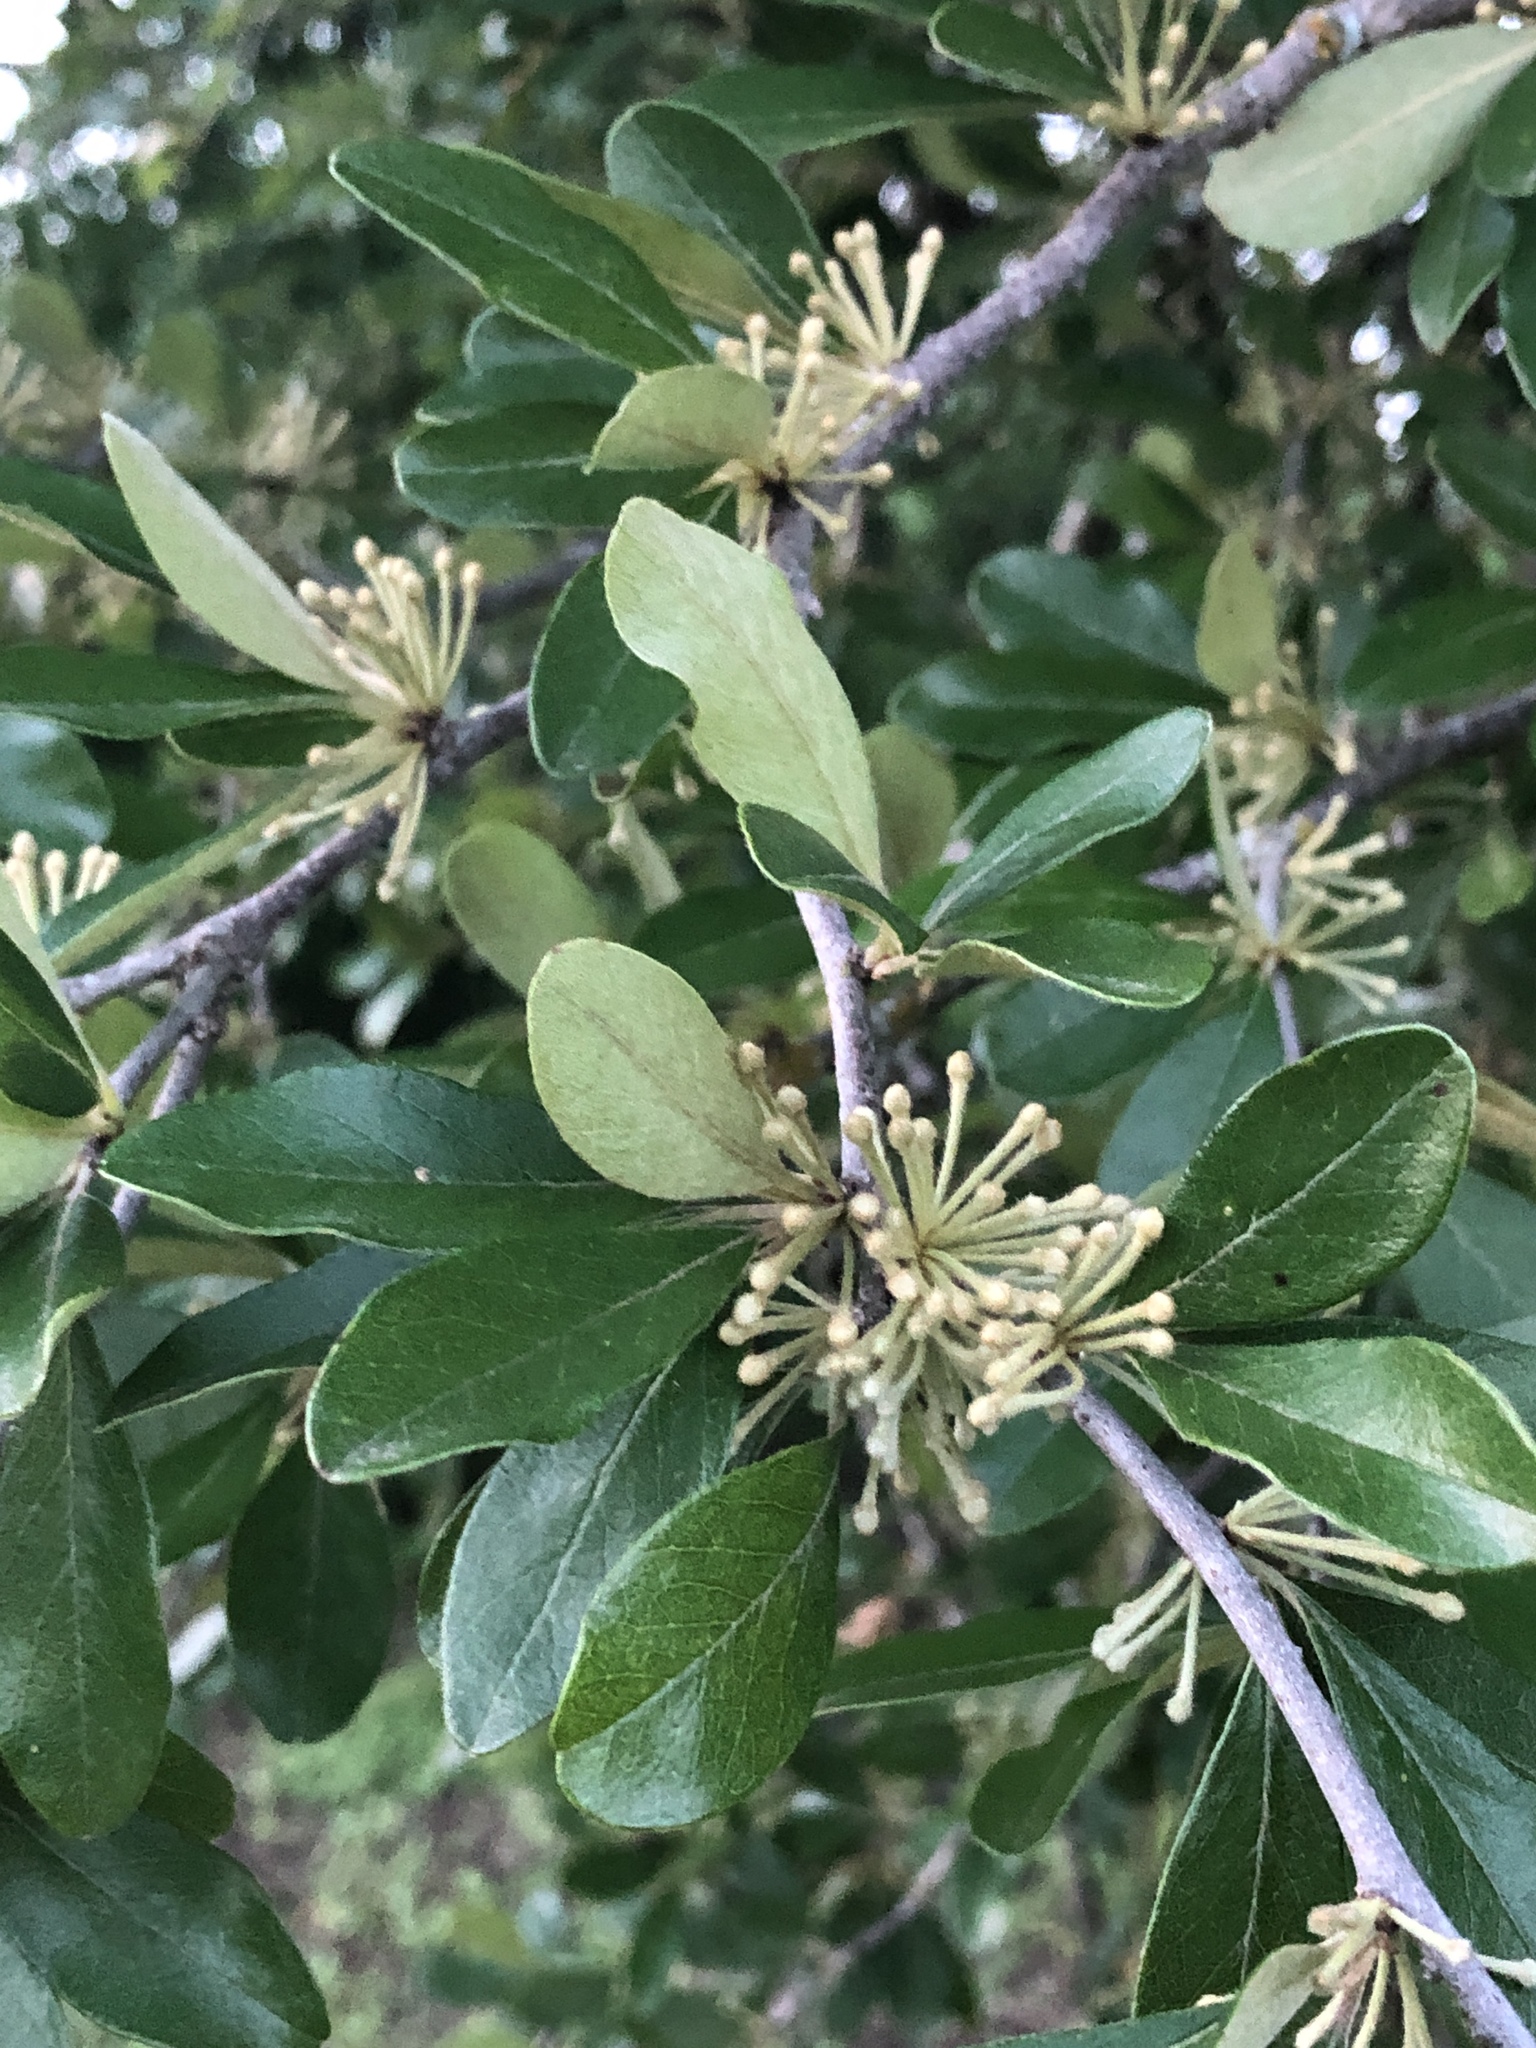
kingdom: Plantae
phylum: Tracheophyta
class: Magnoliopsida
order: Ericales
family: Sapotaceae
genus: Sideroxylon
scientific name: Sideroxylon lanuginosum
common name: Chittamwood
